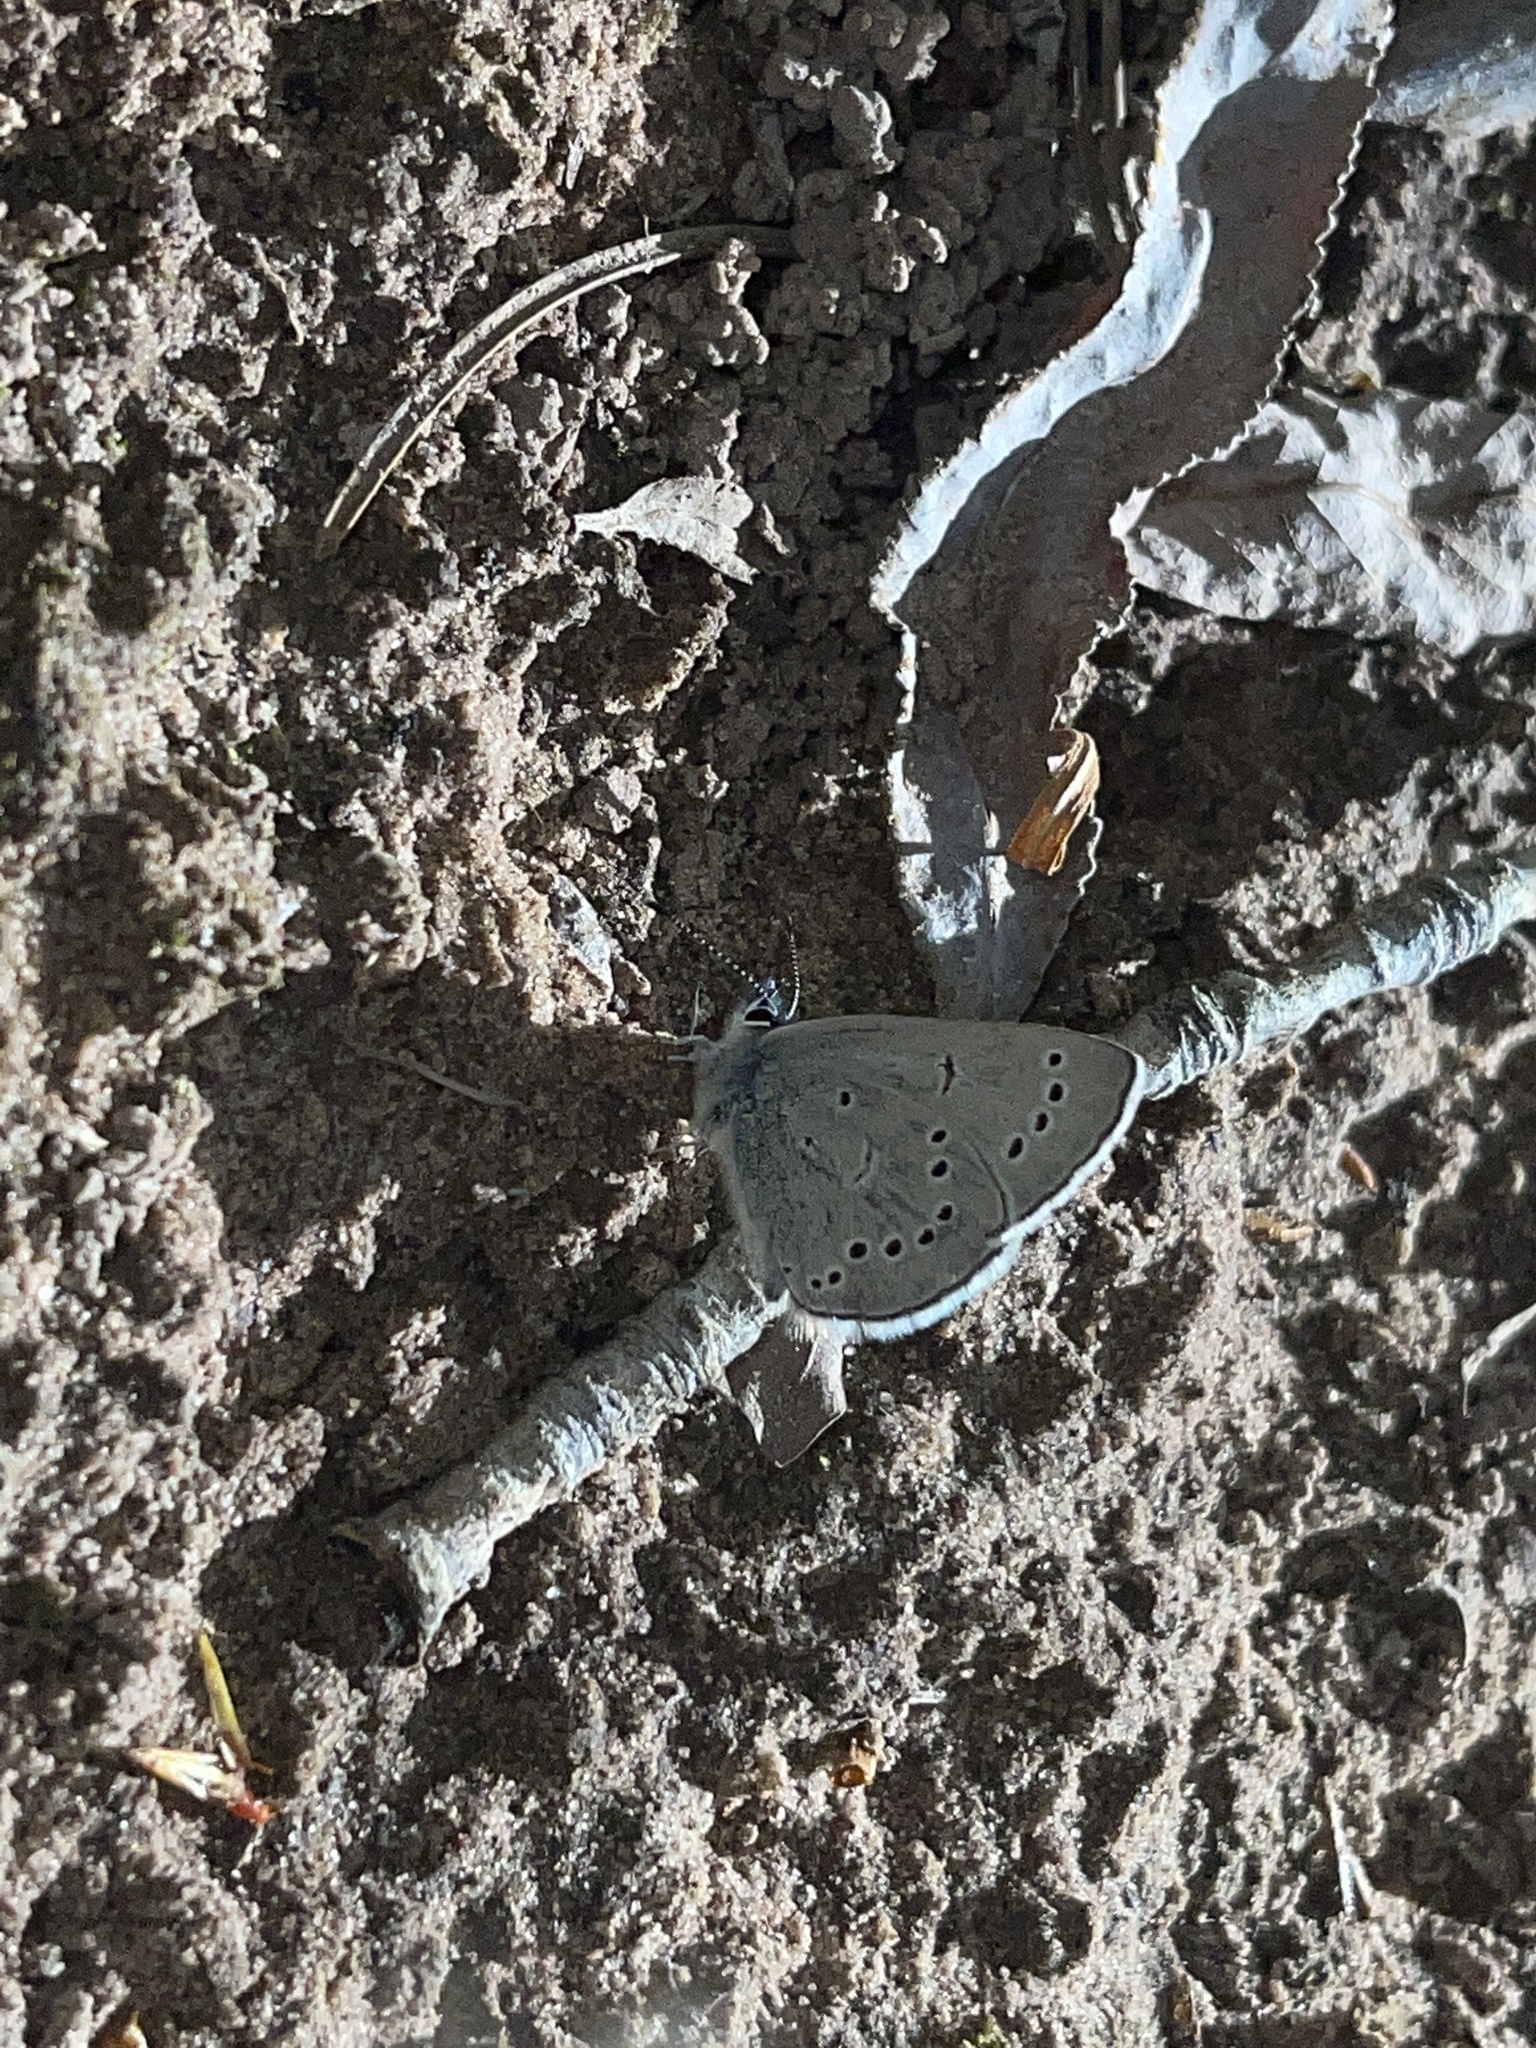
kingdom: Animalia
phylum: Arthropoda
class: Insecta
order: Lepidoptera
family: Lycaenidae
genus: Glaucopsyche
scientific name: Glaucopsyche lygdamus
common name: Silvery blue
